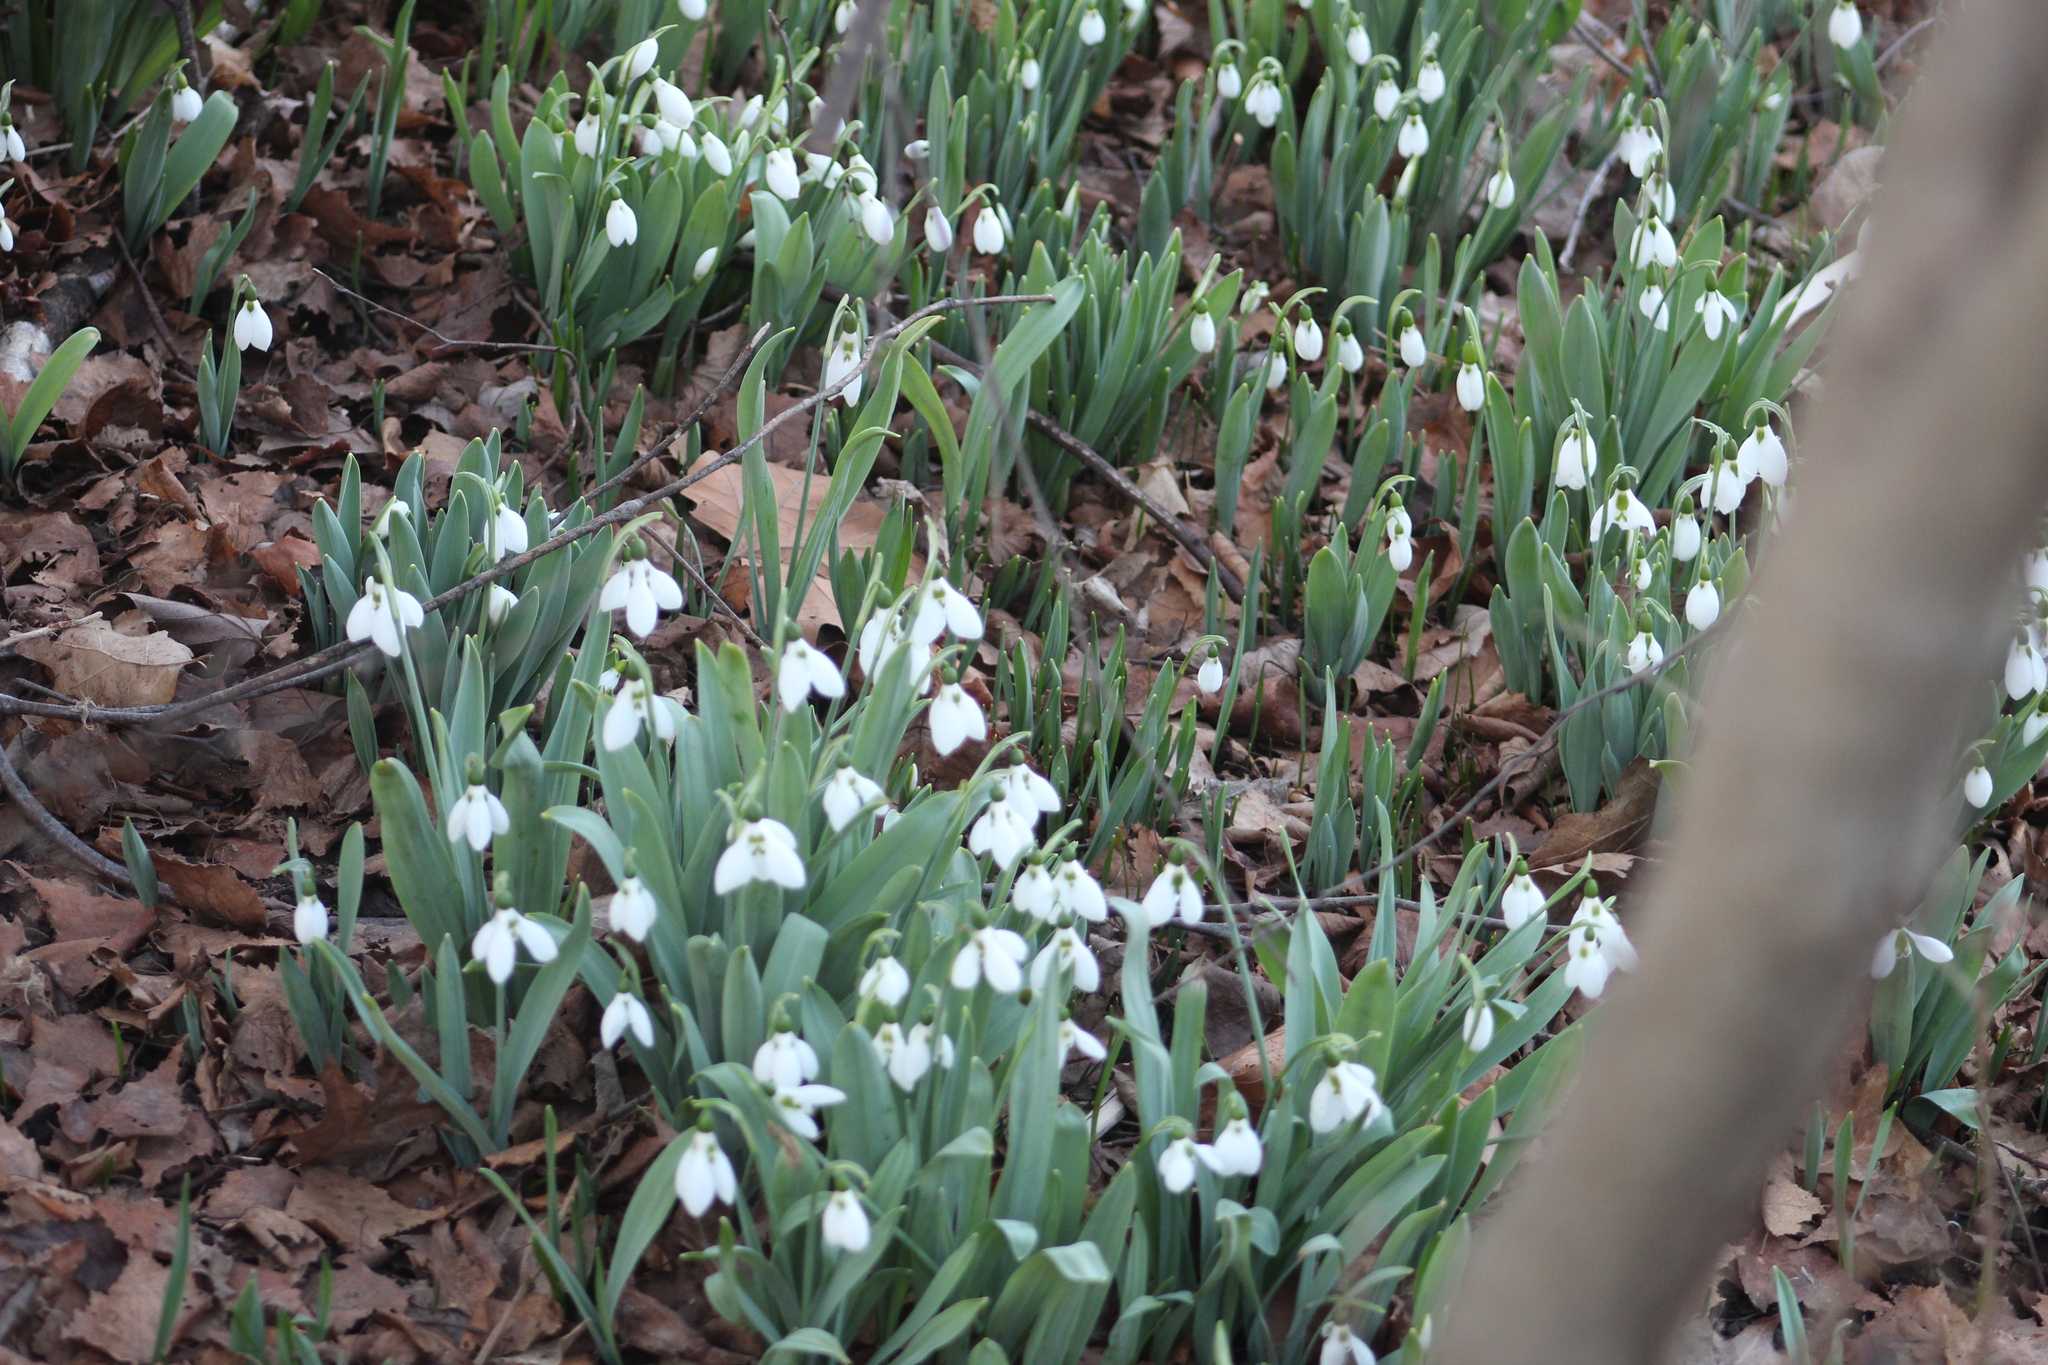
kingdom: Plantae
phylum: Tracheophyta
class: Liliopsida
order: Asparagales
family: Amaryllidaceae
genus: Galanthus
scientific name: Galanthus elwesii
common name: Greater snowdrop
